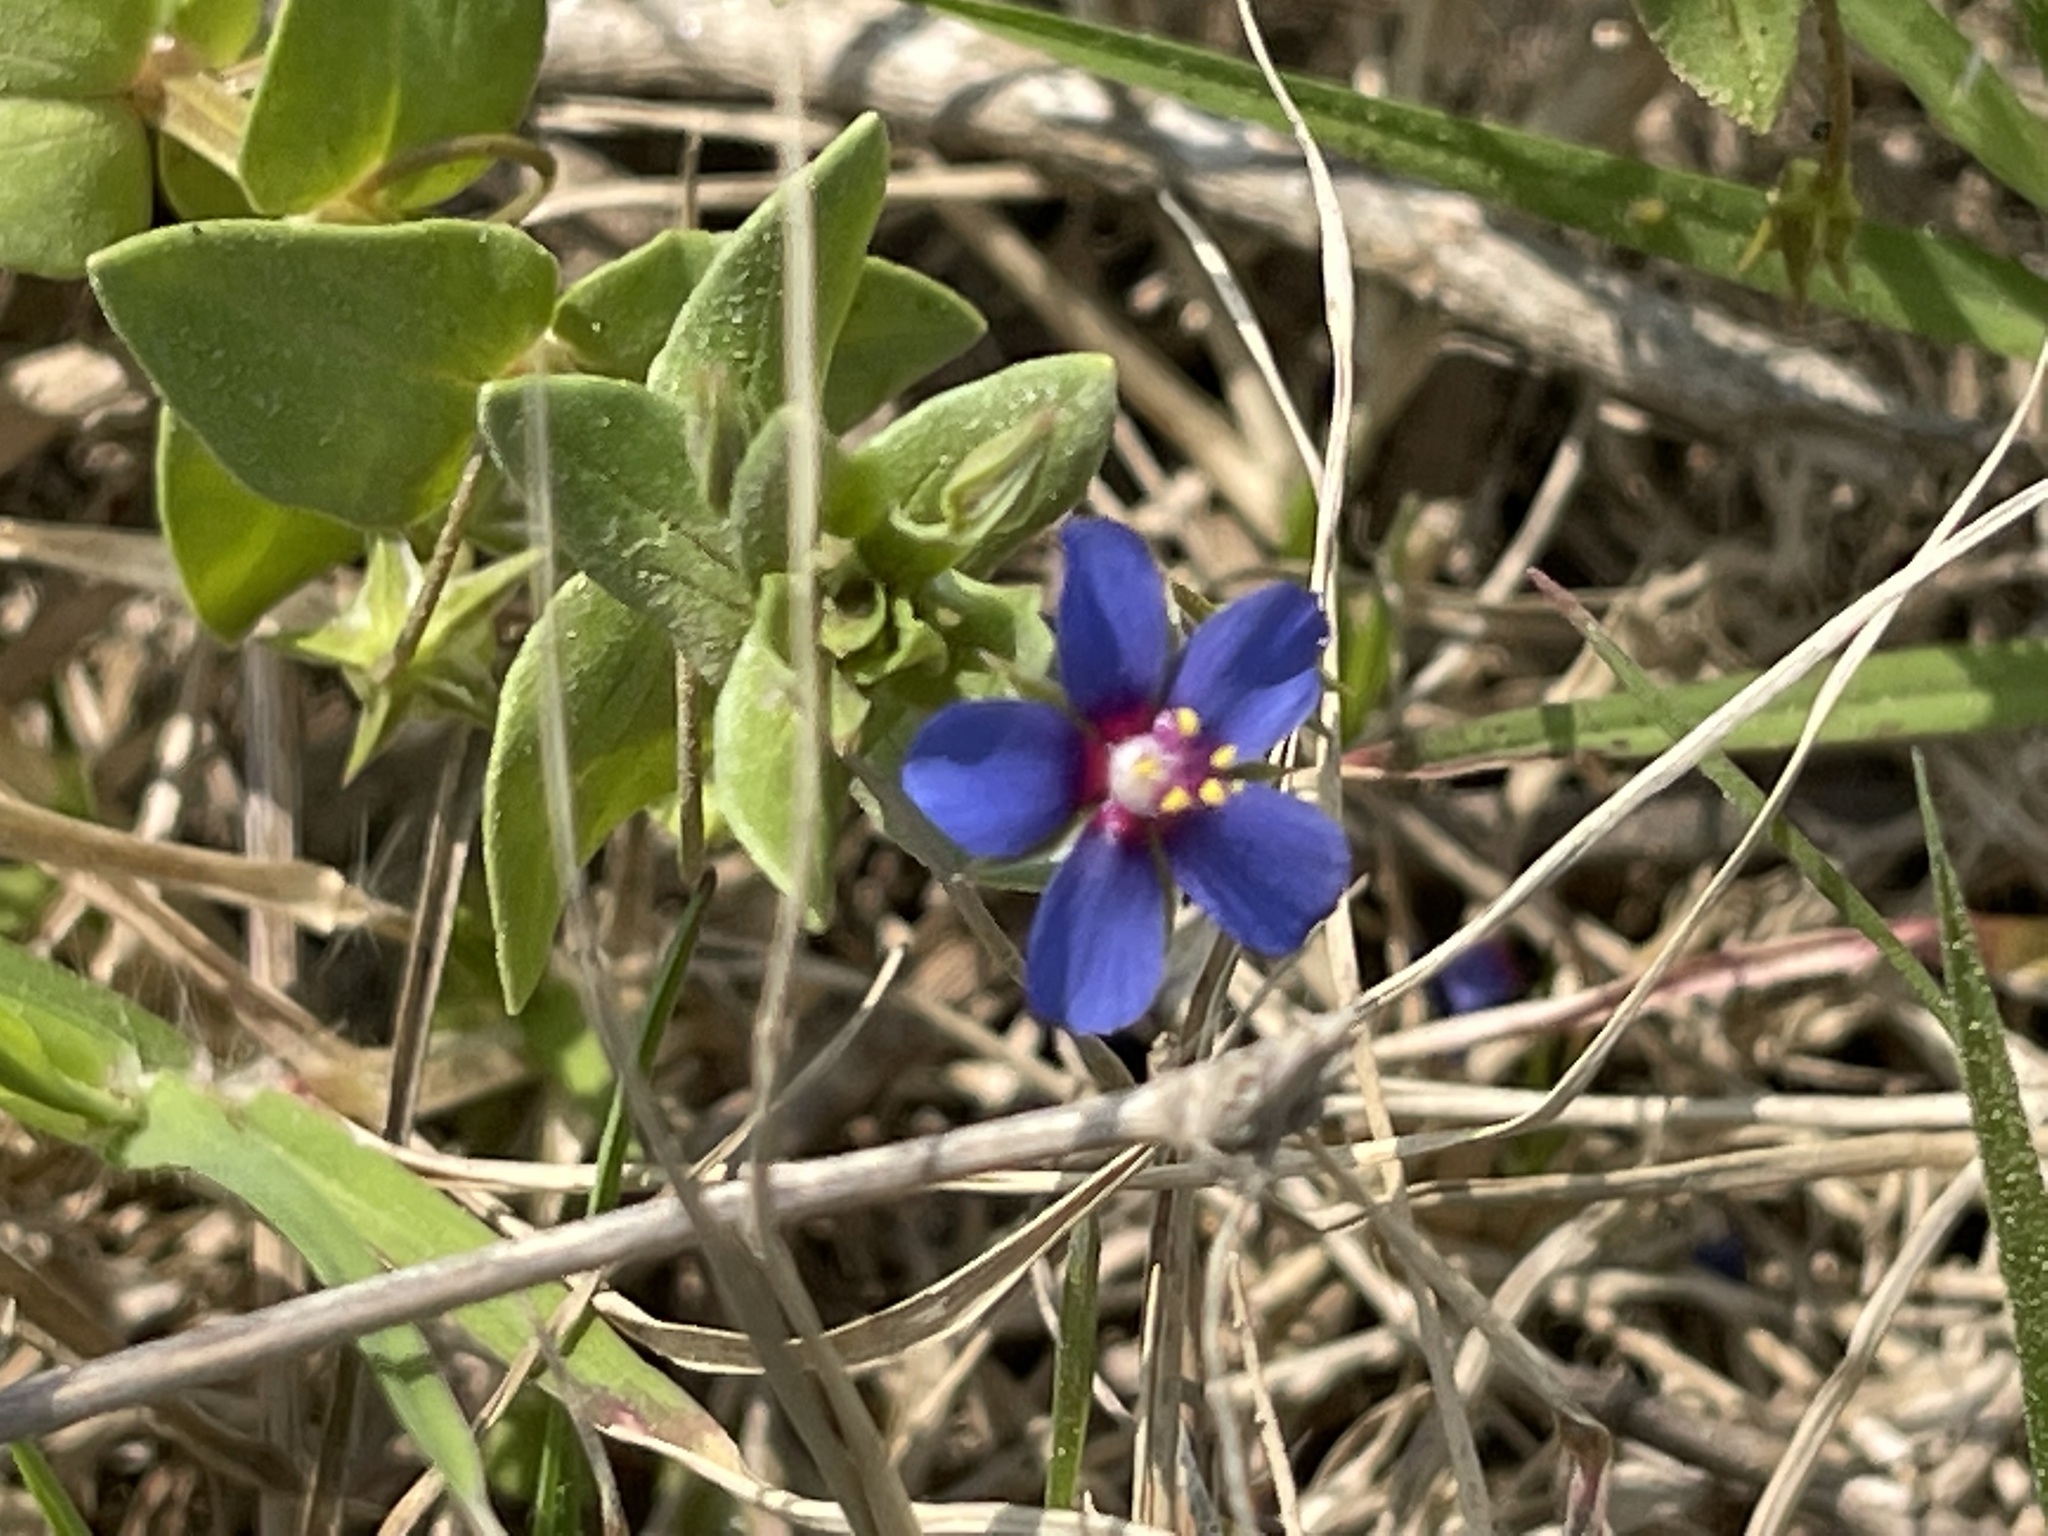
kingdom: Plantae
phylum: Tracheophyta
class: Magnoliopsida
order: Ericales
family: Primulaceae
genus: Lysimachia
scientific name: Lysimachia loeflingii
